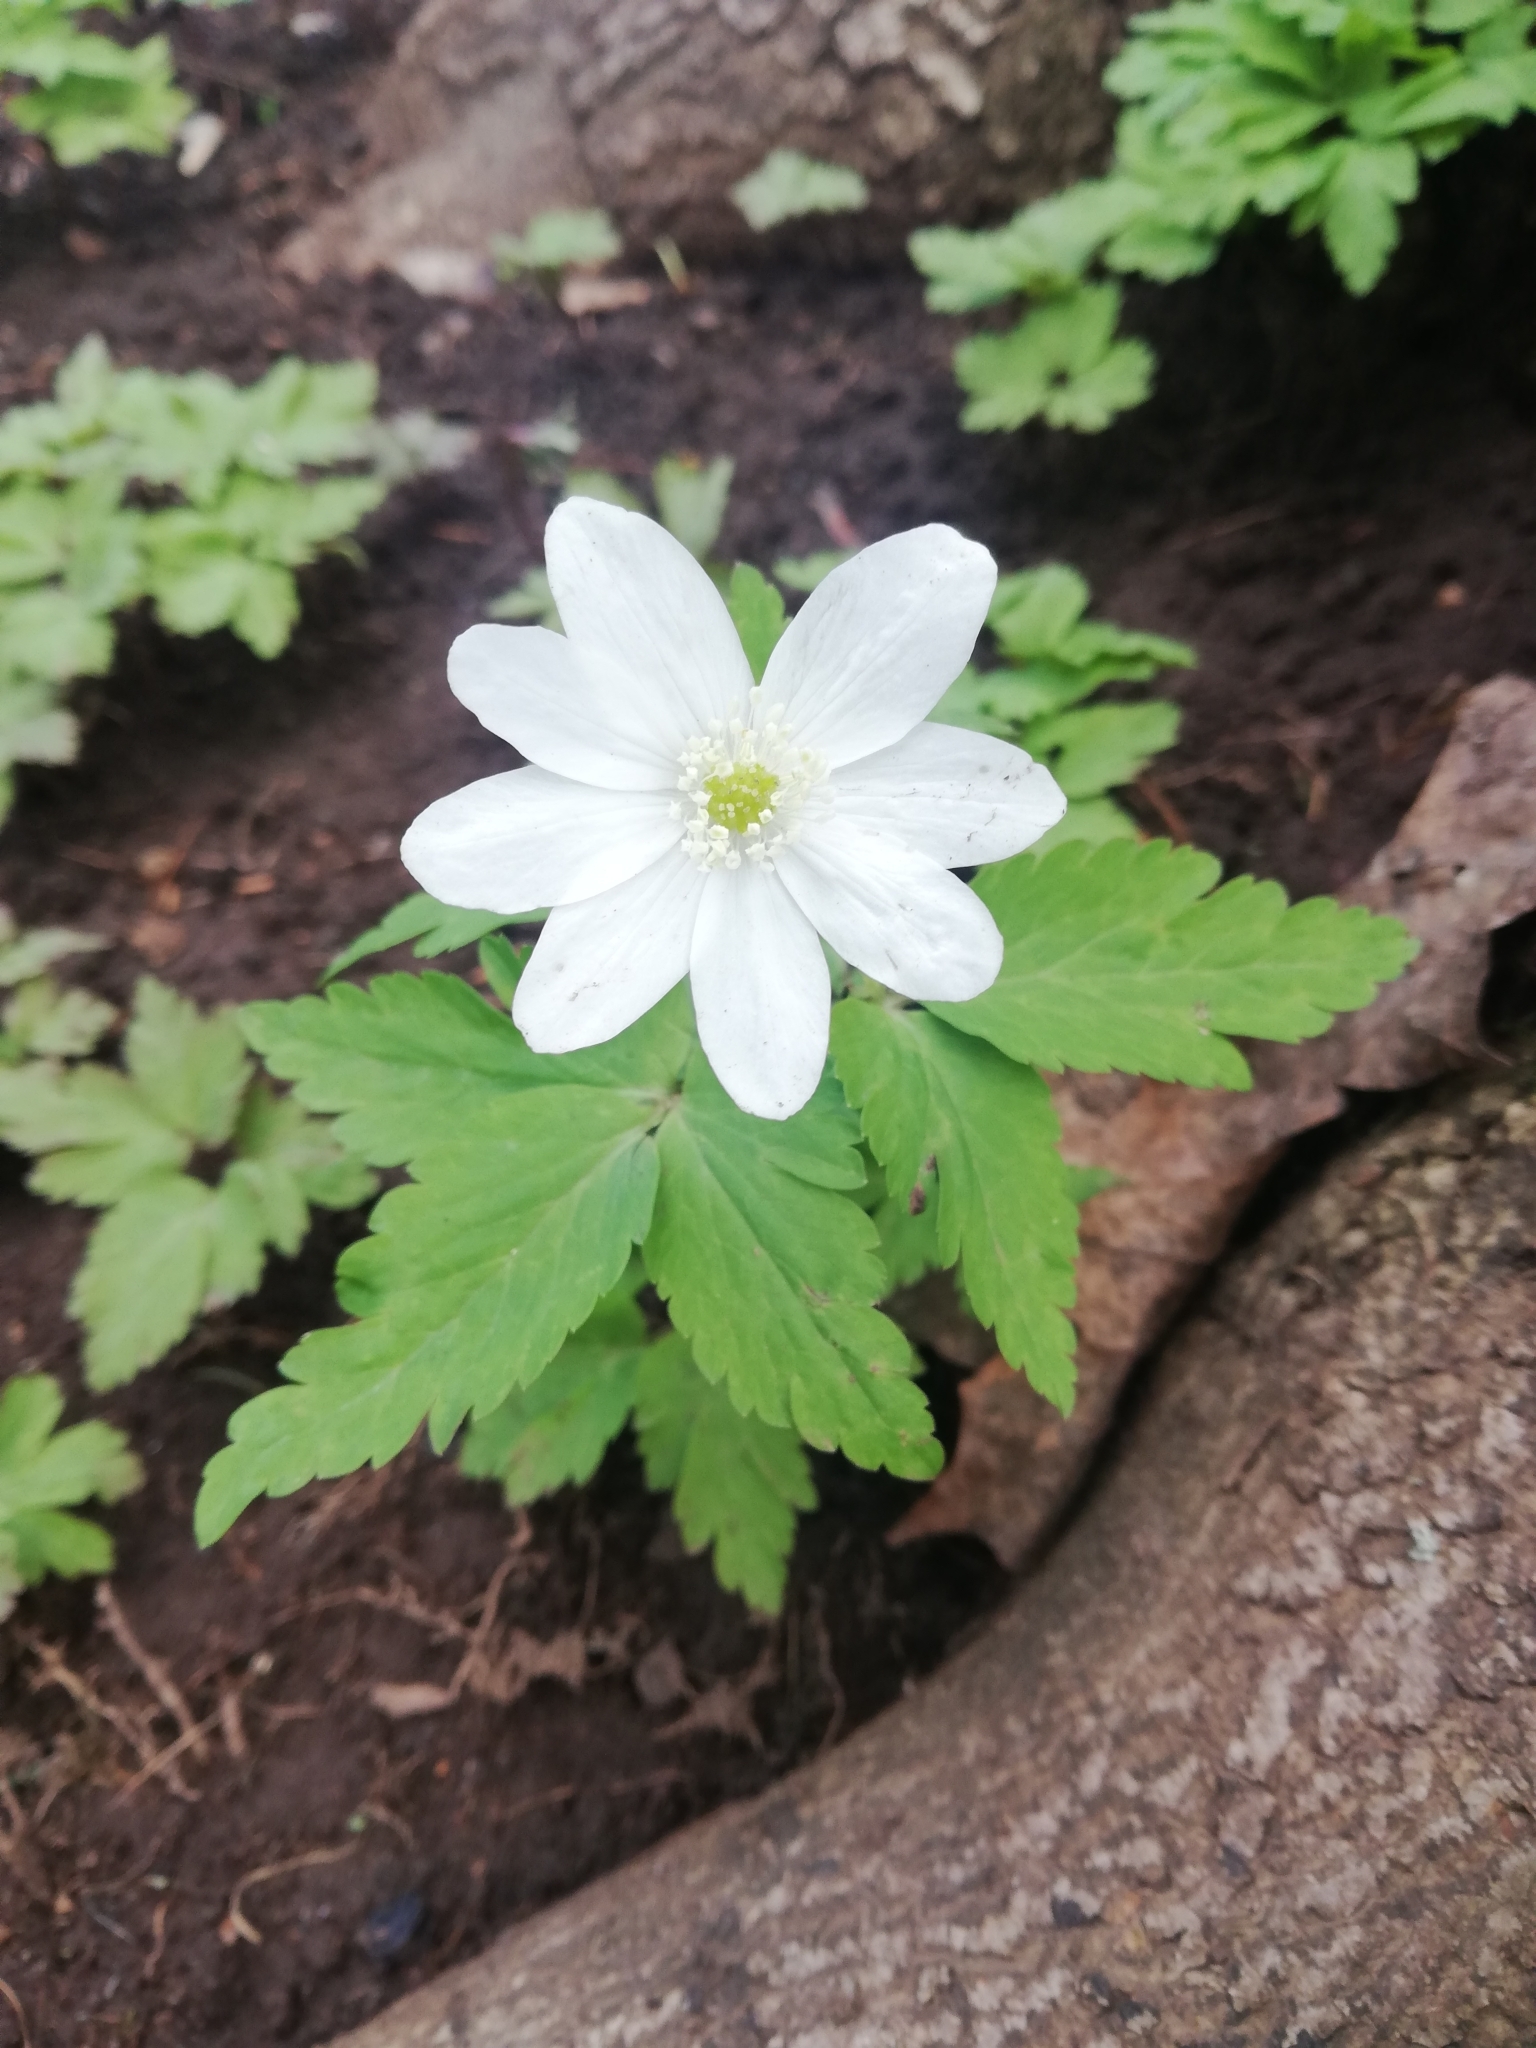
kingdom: Plantae
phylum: Tracheophyta
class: Magnoliopsida
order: Ranunculales
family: Ranunculaceae
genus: Anemone
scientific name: Anemone altaica
